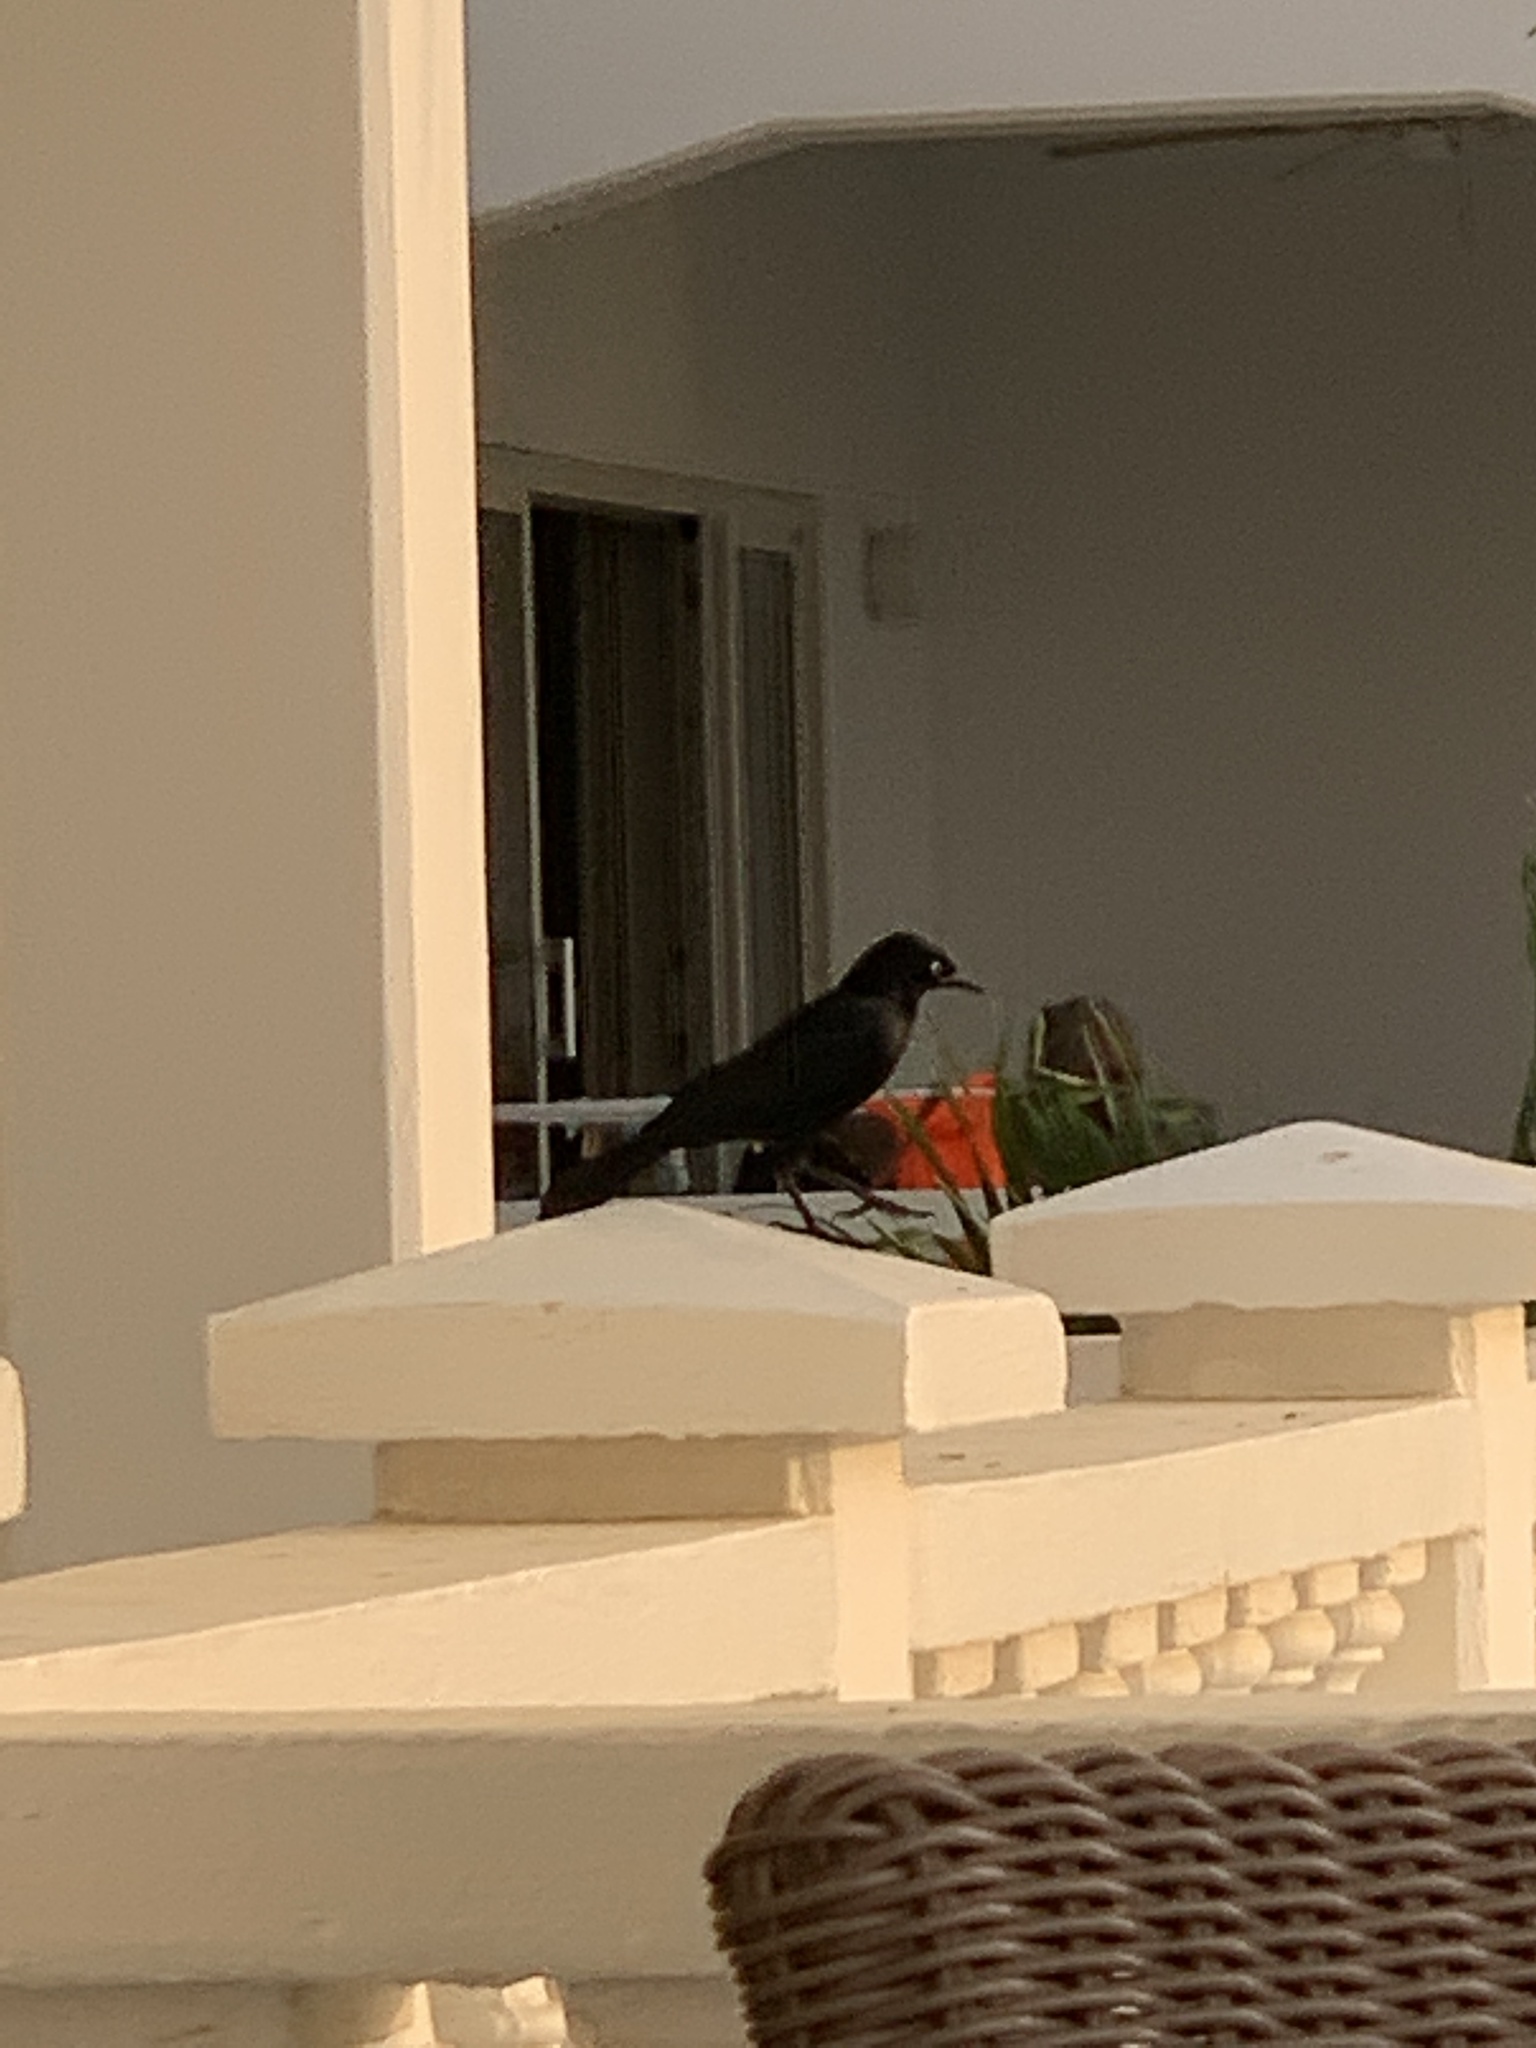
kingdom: Animalia
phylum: Chordata
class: Aves
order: Passeriformes
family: Icteridae
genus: Quiscalus
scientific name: Quiscalus lugubris
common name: Carib grackle
